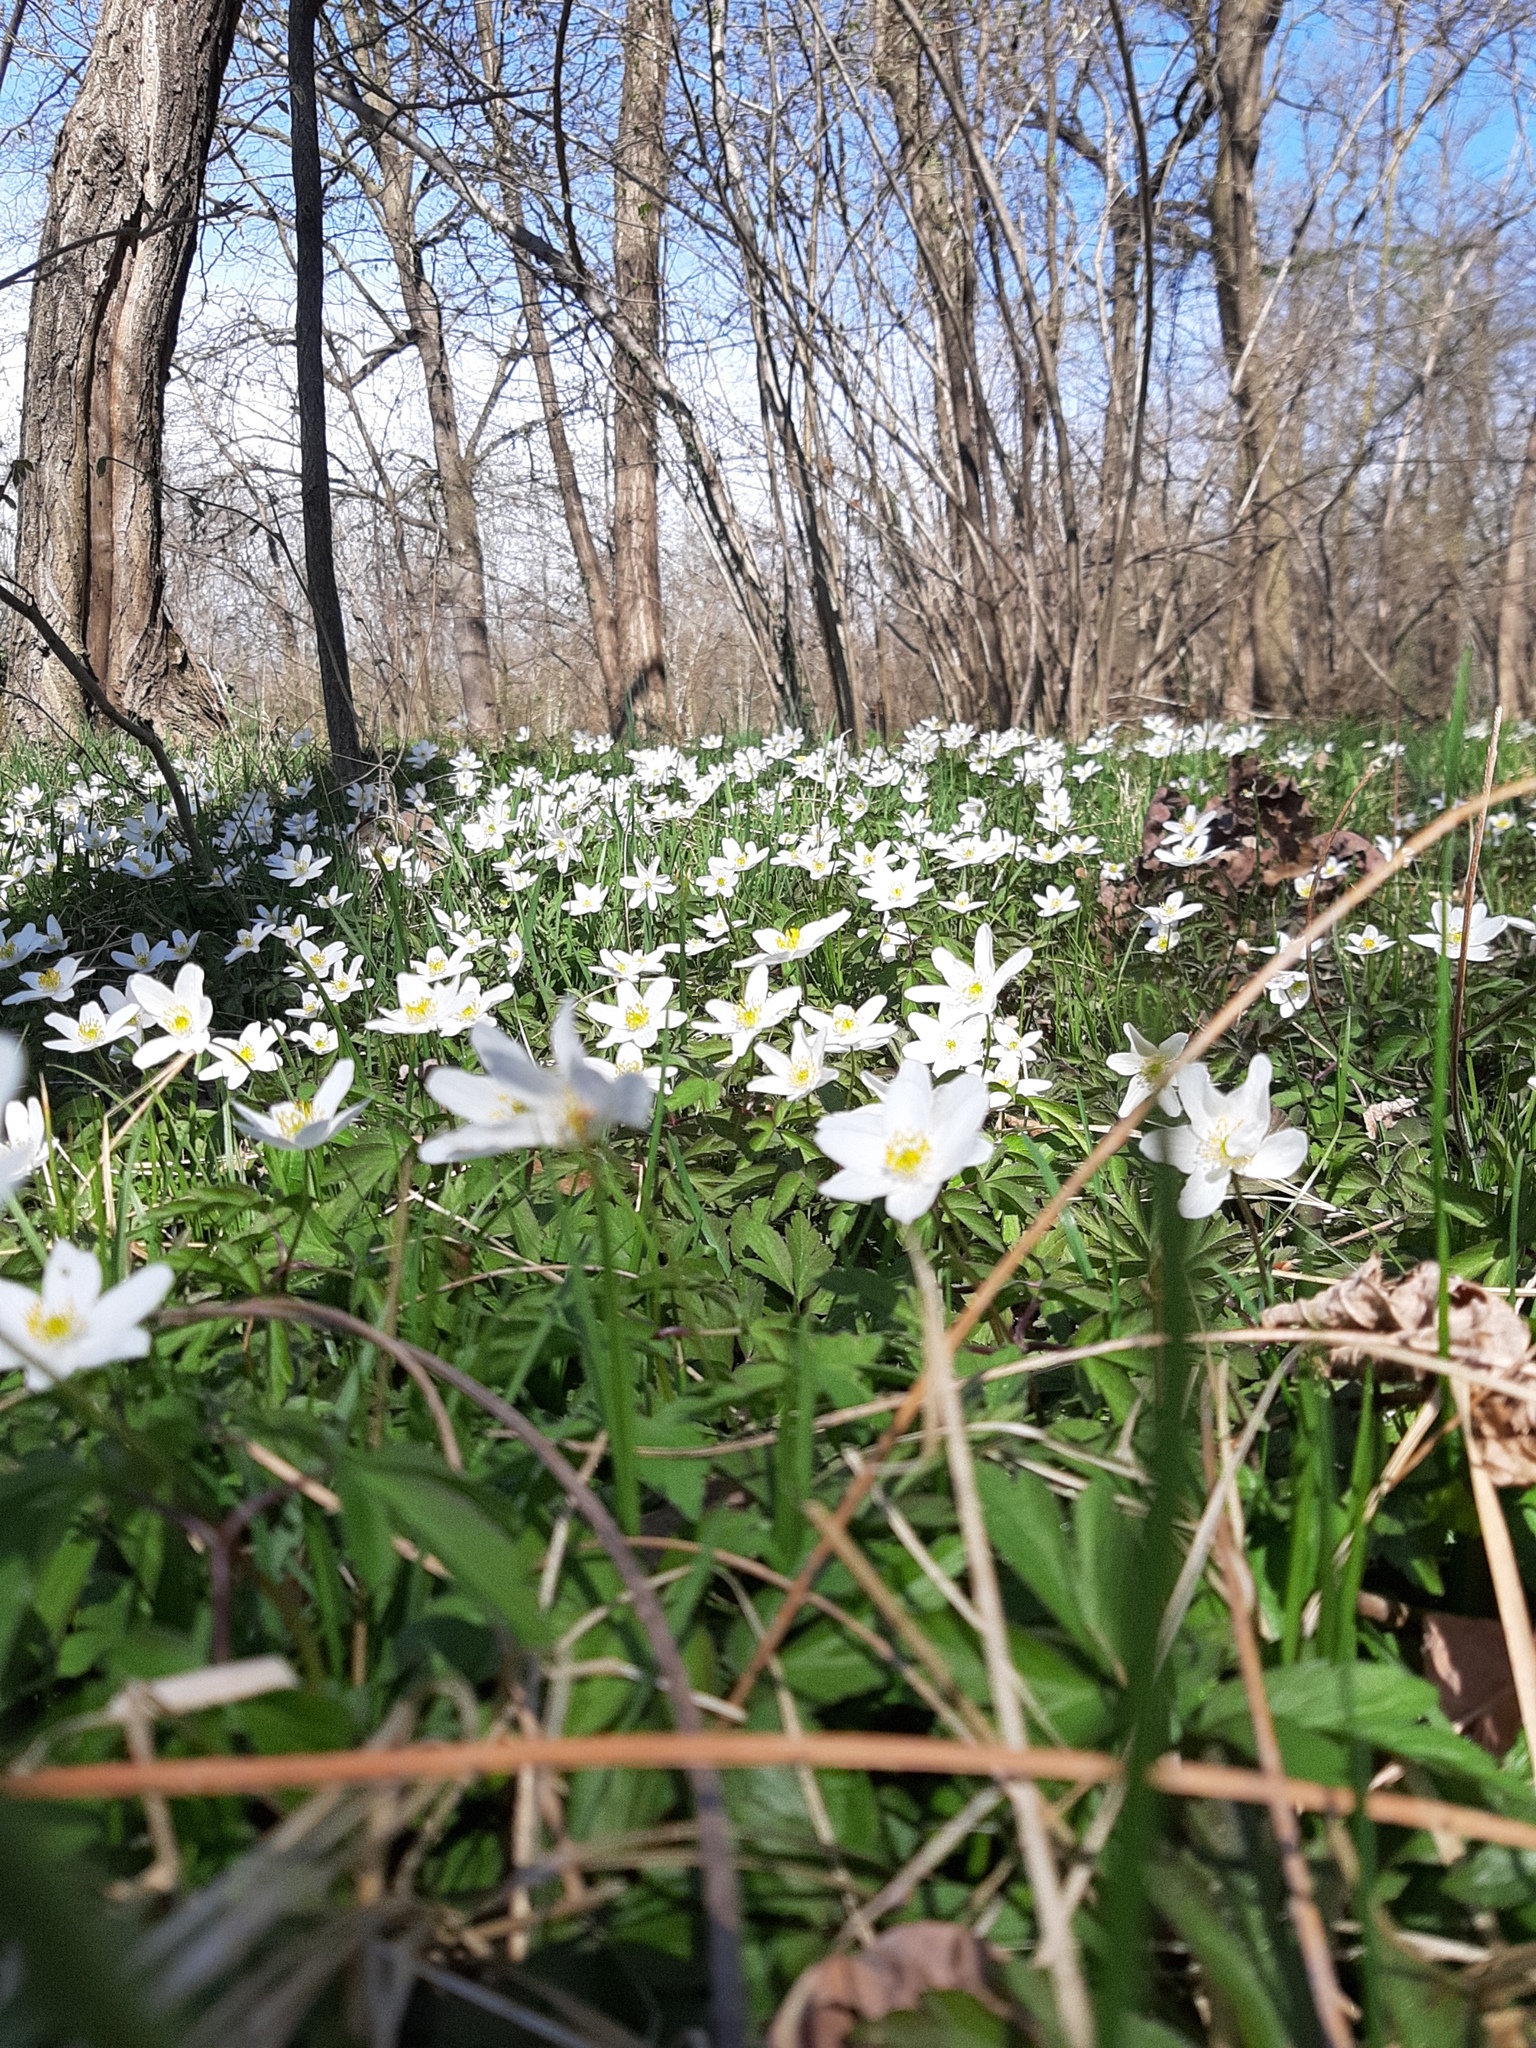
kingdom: Plantae
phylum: Tracheophyta
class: Magnoliopsida
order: Ranunculales
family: Ranunculaceae
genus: Anemone
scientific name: Anemone nemorosa
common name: Wood anemone
